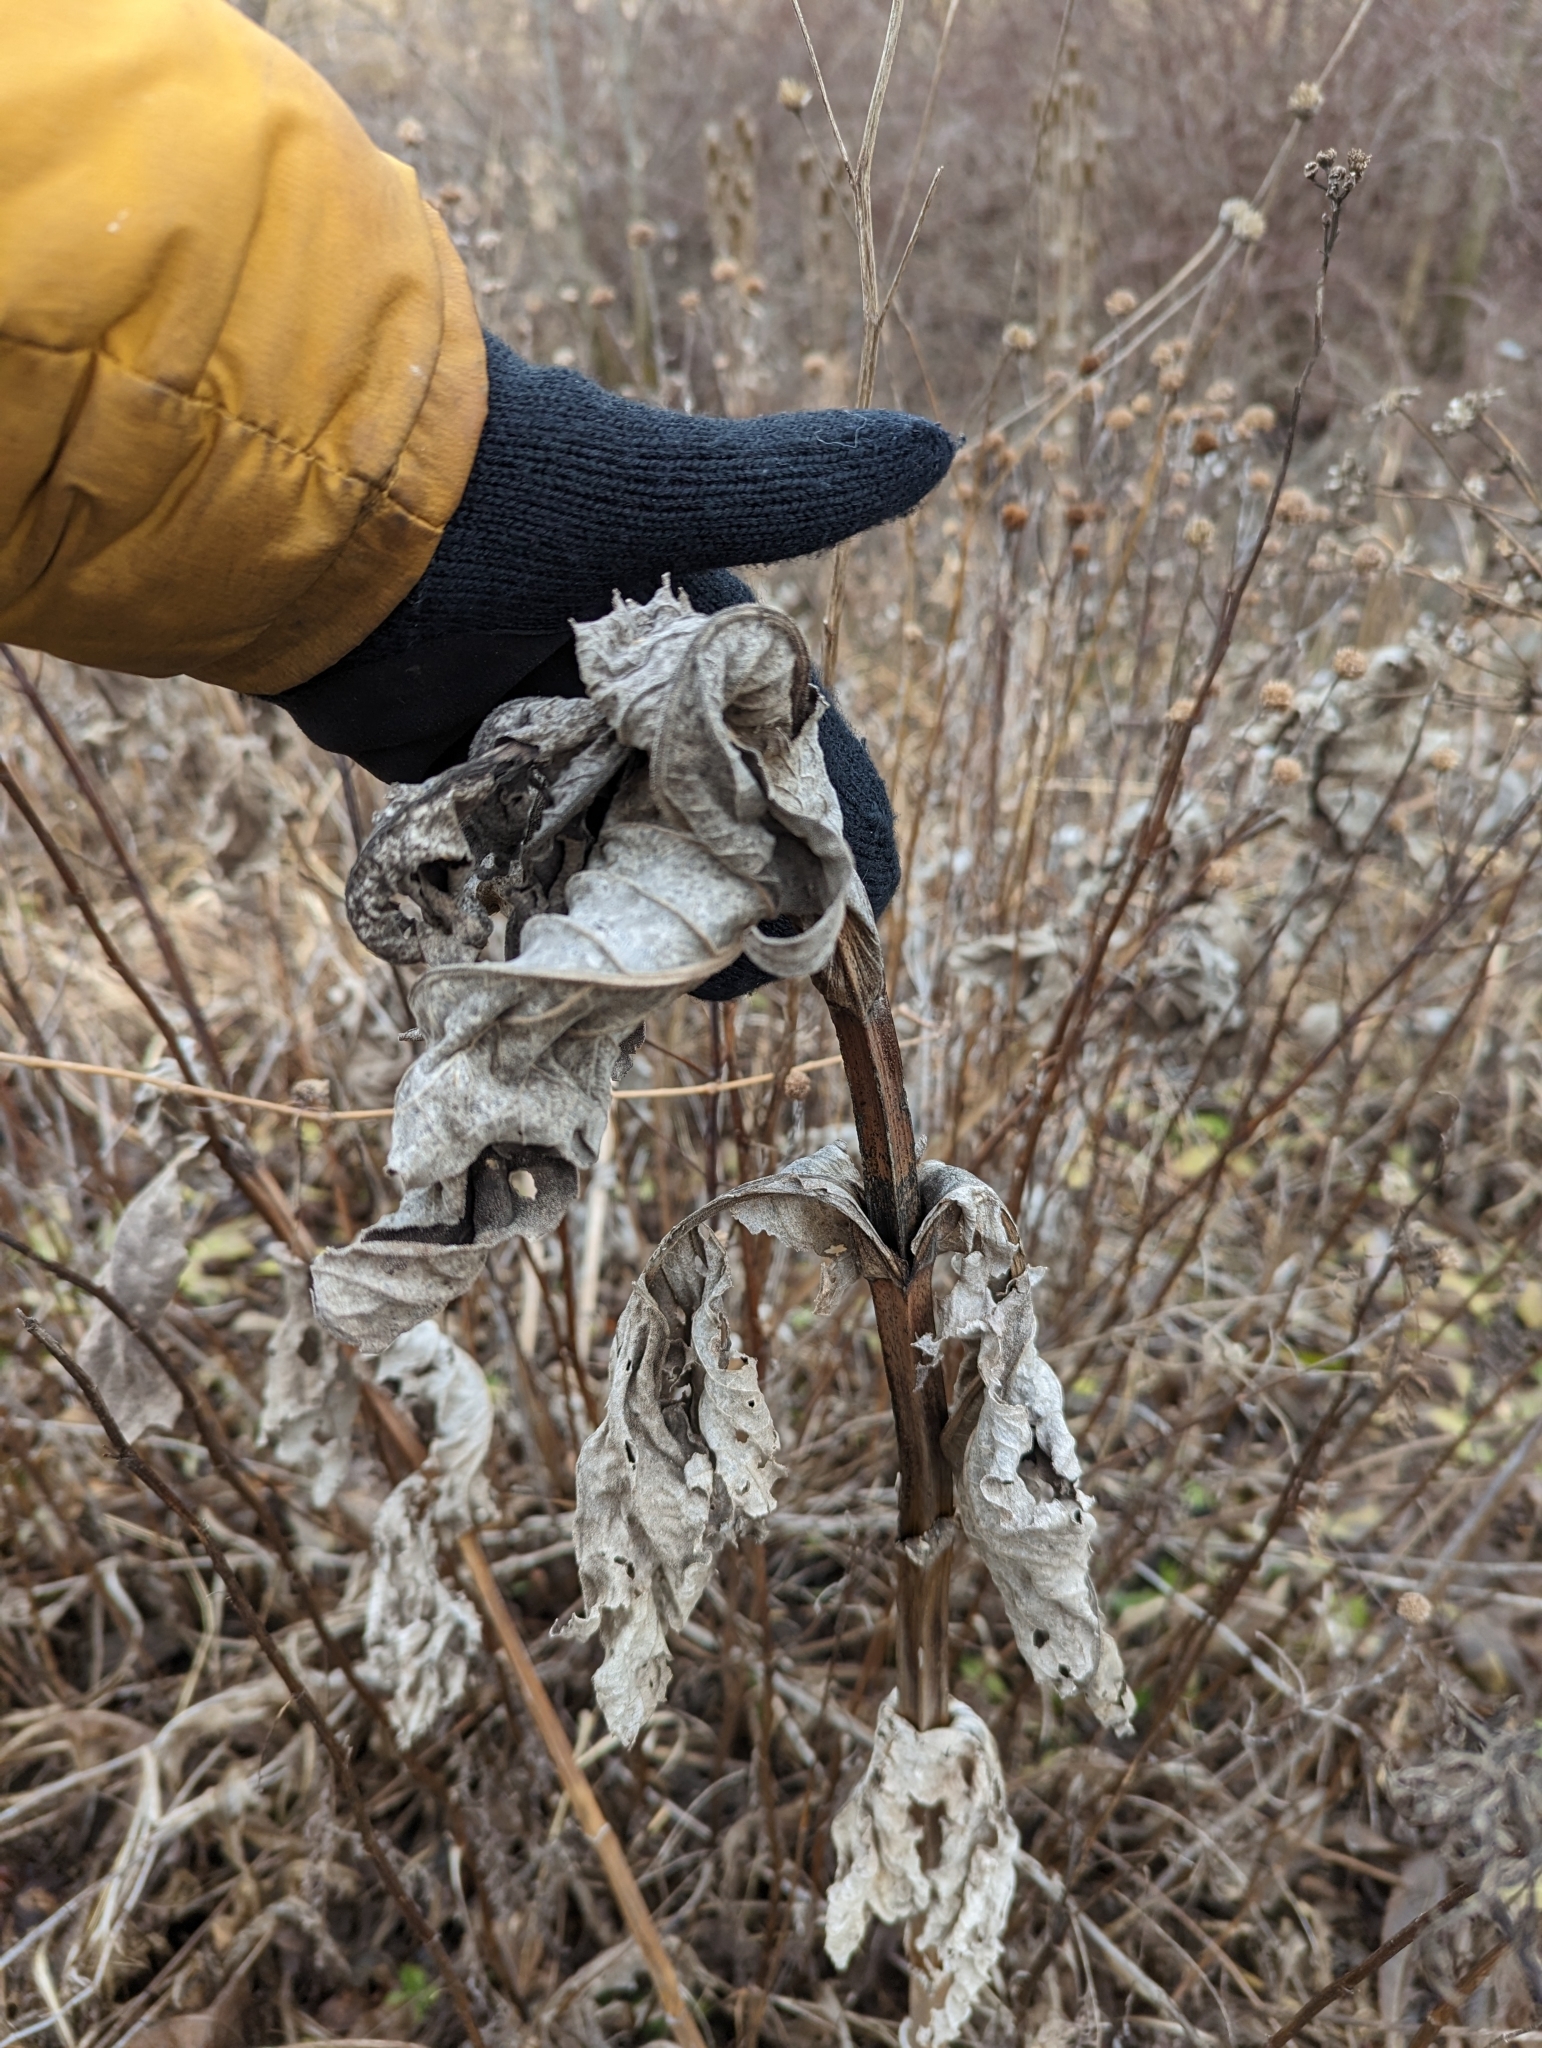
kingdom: Plantae
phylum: Tracheophyta
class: Magnoliopsida
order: Asterales
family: Asteraceae
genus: Silphium
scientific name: Silphium perfoliatum
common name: Cup-plant
